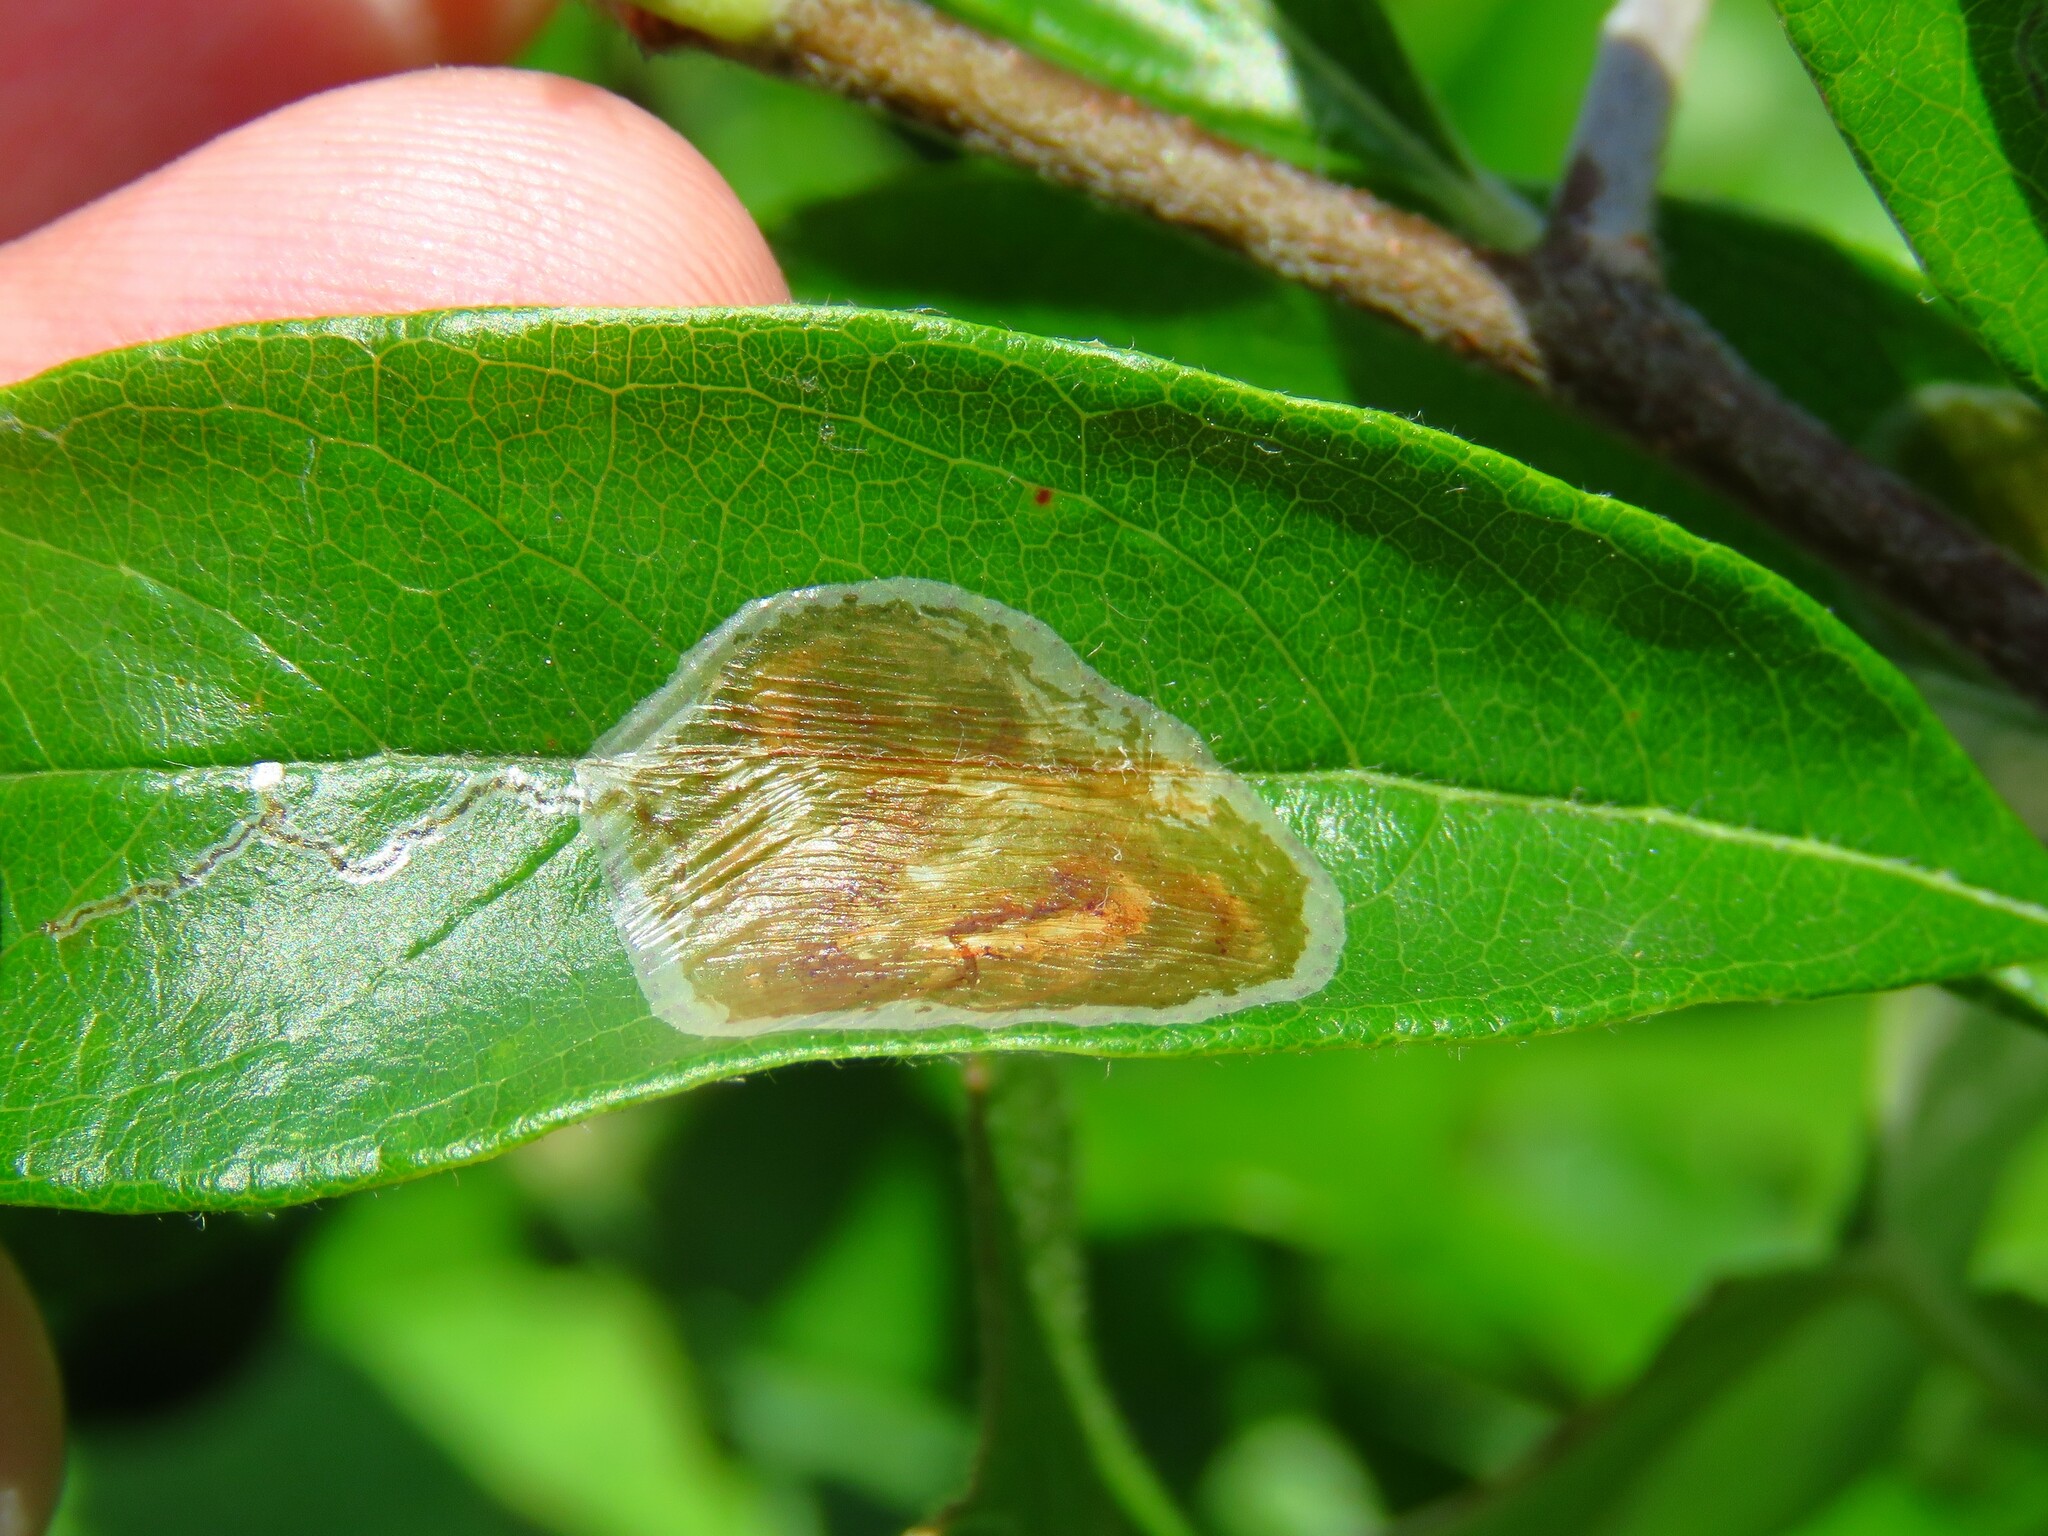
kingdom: Animalia
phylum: Arthropoda
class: Insecta
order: Lepidoptera
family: Gracillariidae
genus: Parectopa
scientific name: Parectopa bumeliella
